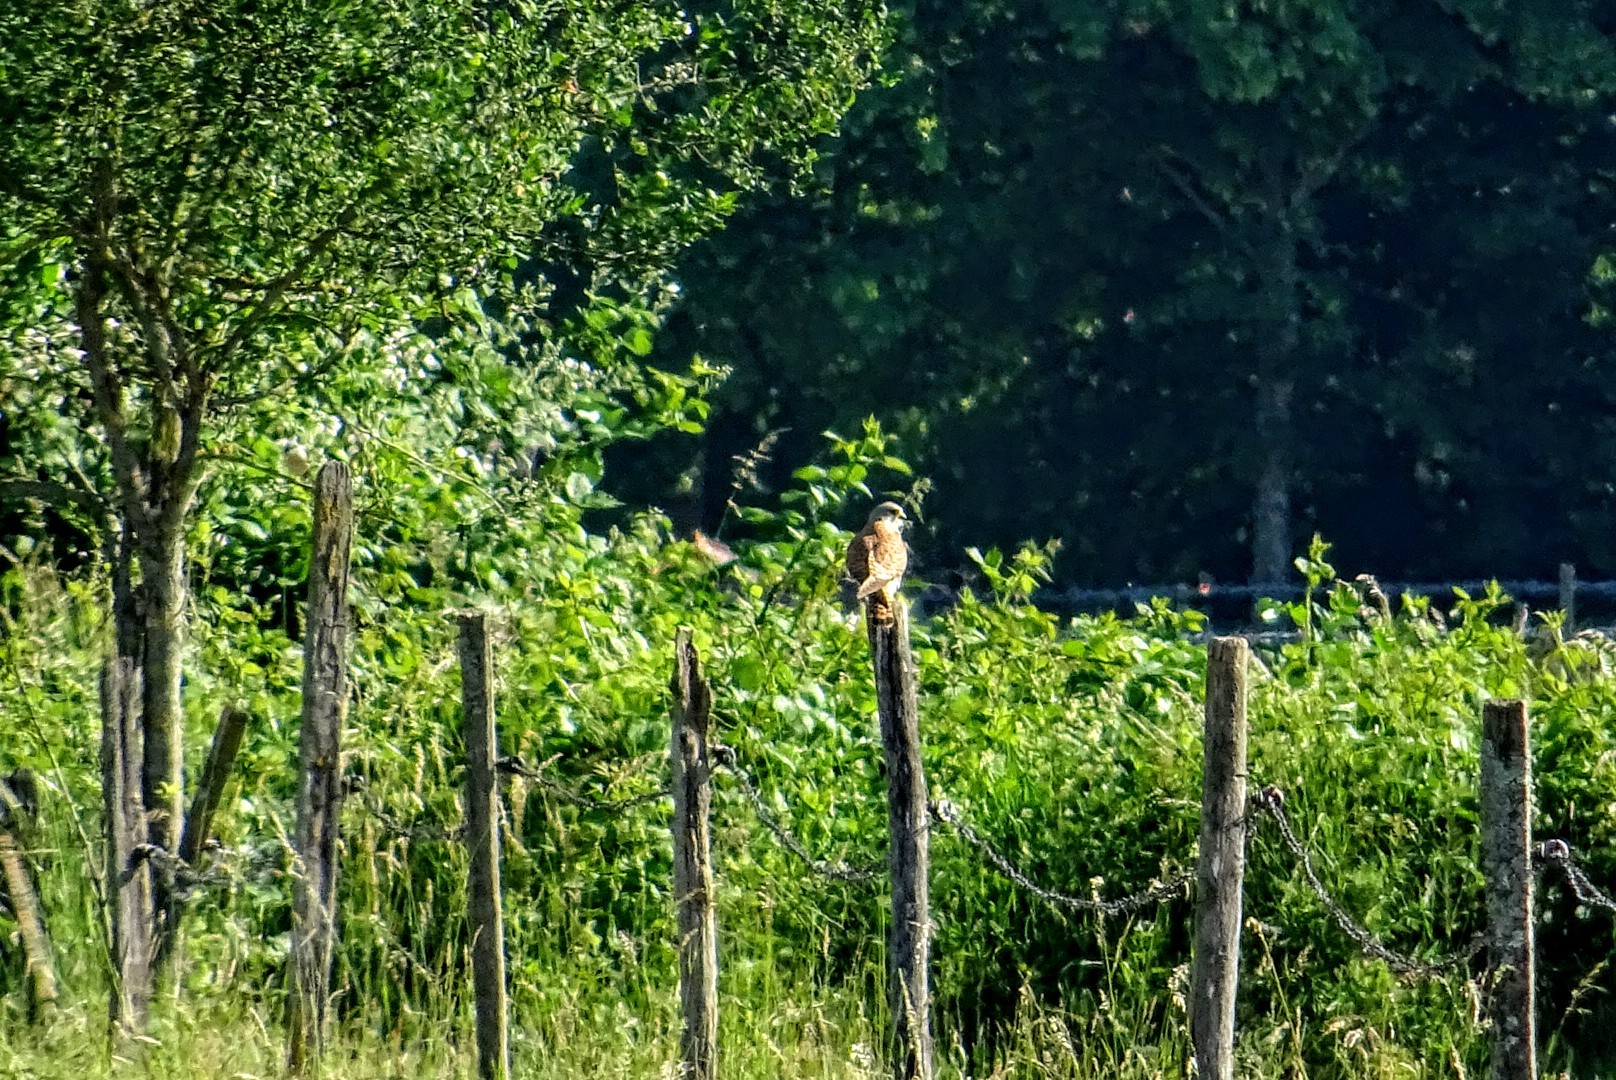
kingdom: Animalia
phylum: Chordata
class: Aves
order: Falconiformes
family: Falconidae
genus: Falco
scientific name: Falco tinnunculus
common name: Common kestrel
